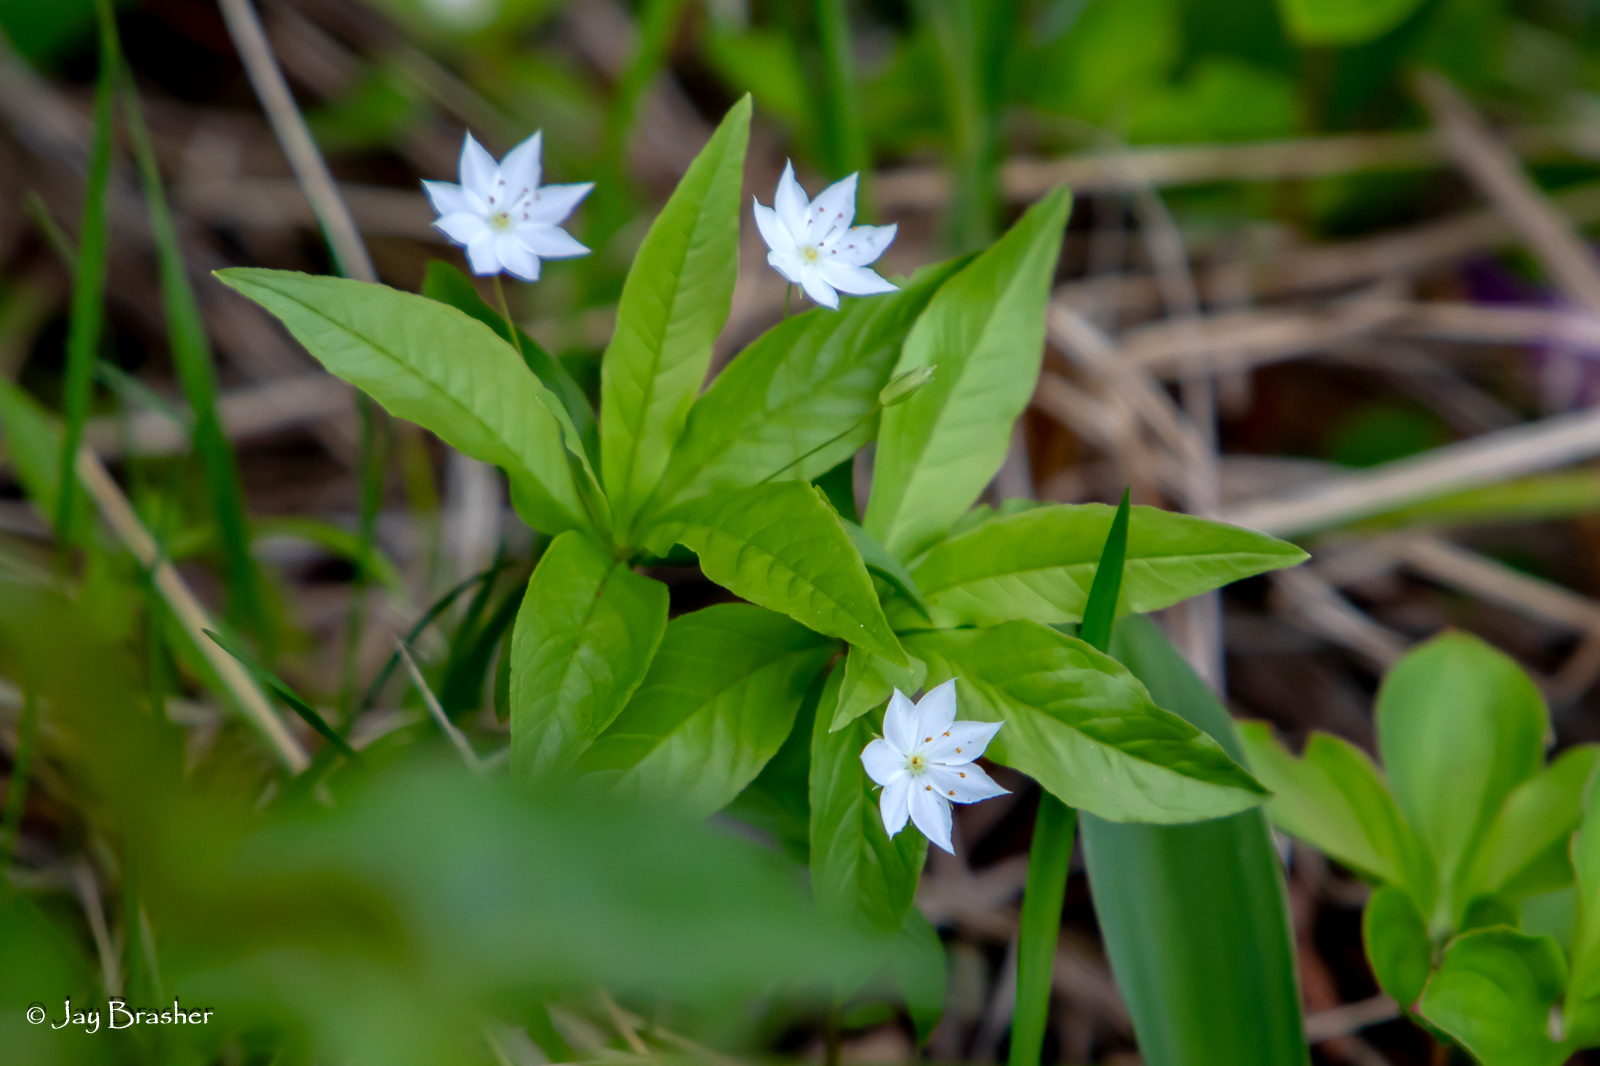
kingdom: Plantae
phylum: Tracheophyta
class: Magnoliopsida
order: Ericales
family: Primulaceae
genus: Lysimachia
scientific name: Lysimachia borealis
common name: American starflower
